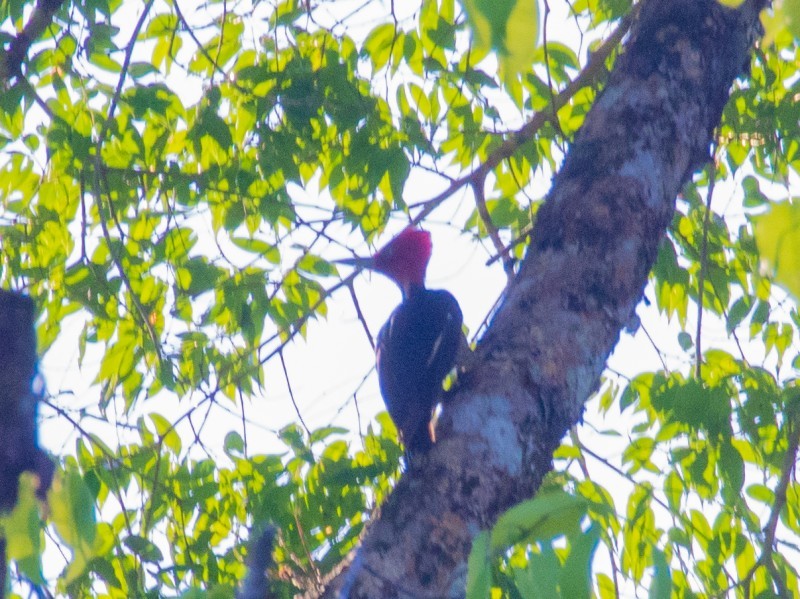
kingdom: Animalia
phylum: Chordata
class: Aves
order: Piciformes
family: Picidae
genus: Campephilus
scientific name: Campephilus guatemalensis
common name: Pale-billed woodpecker
